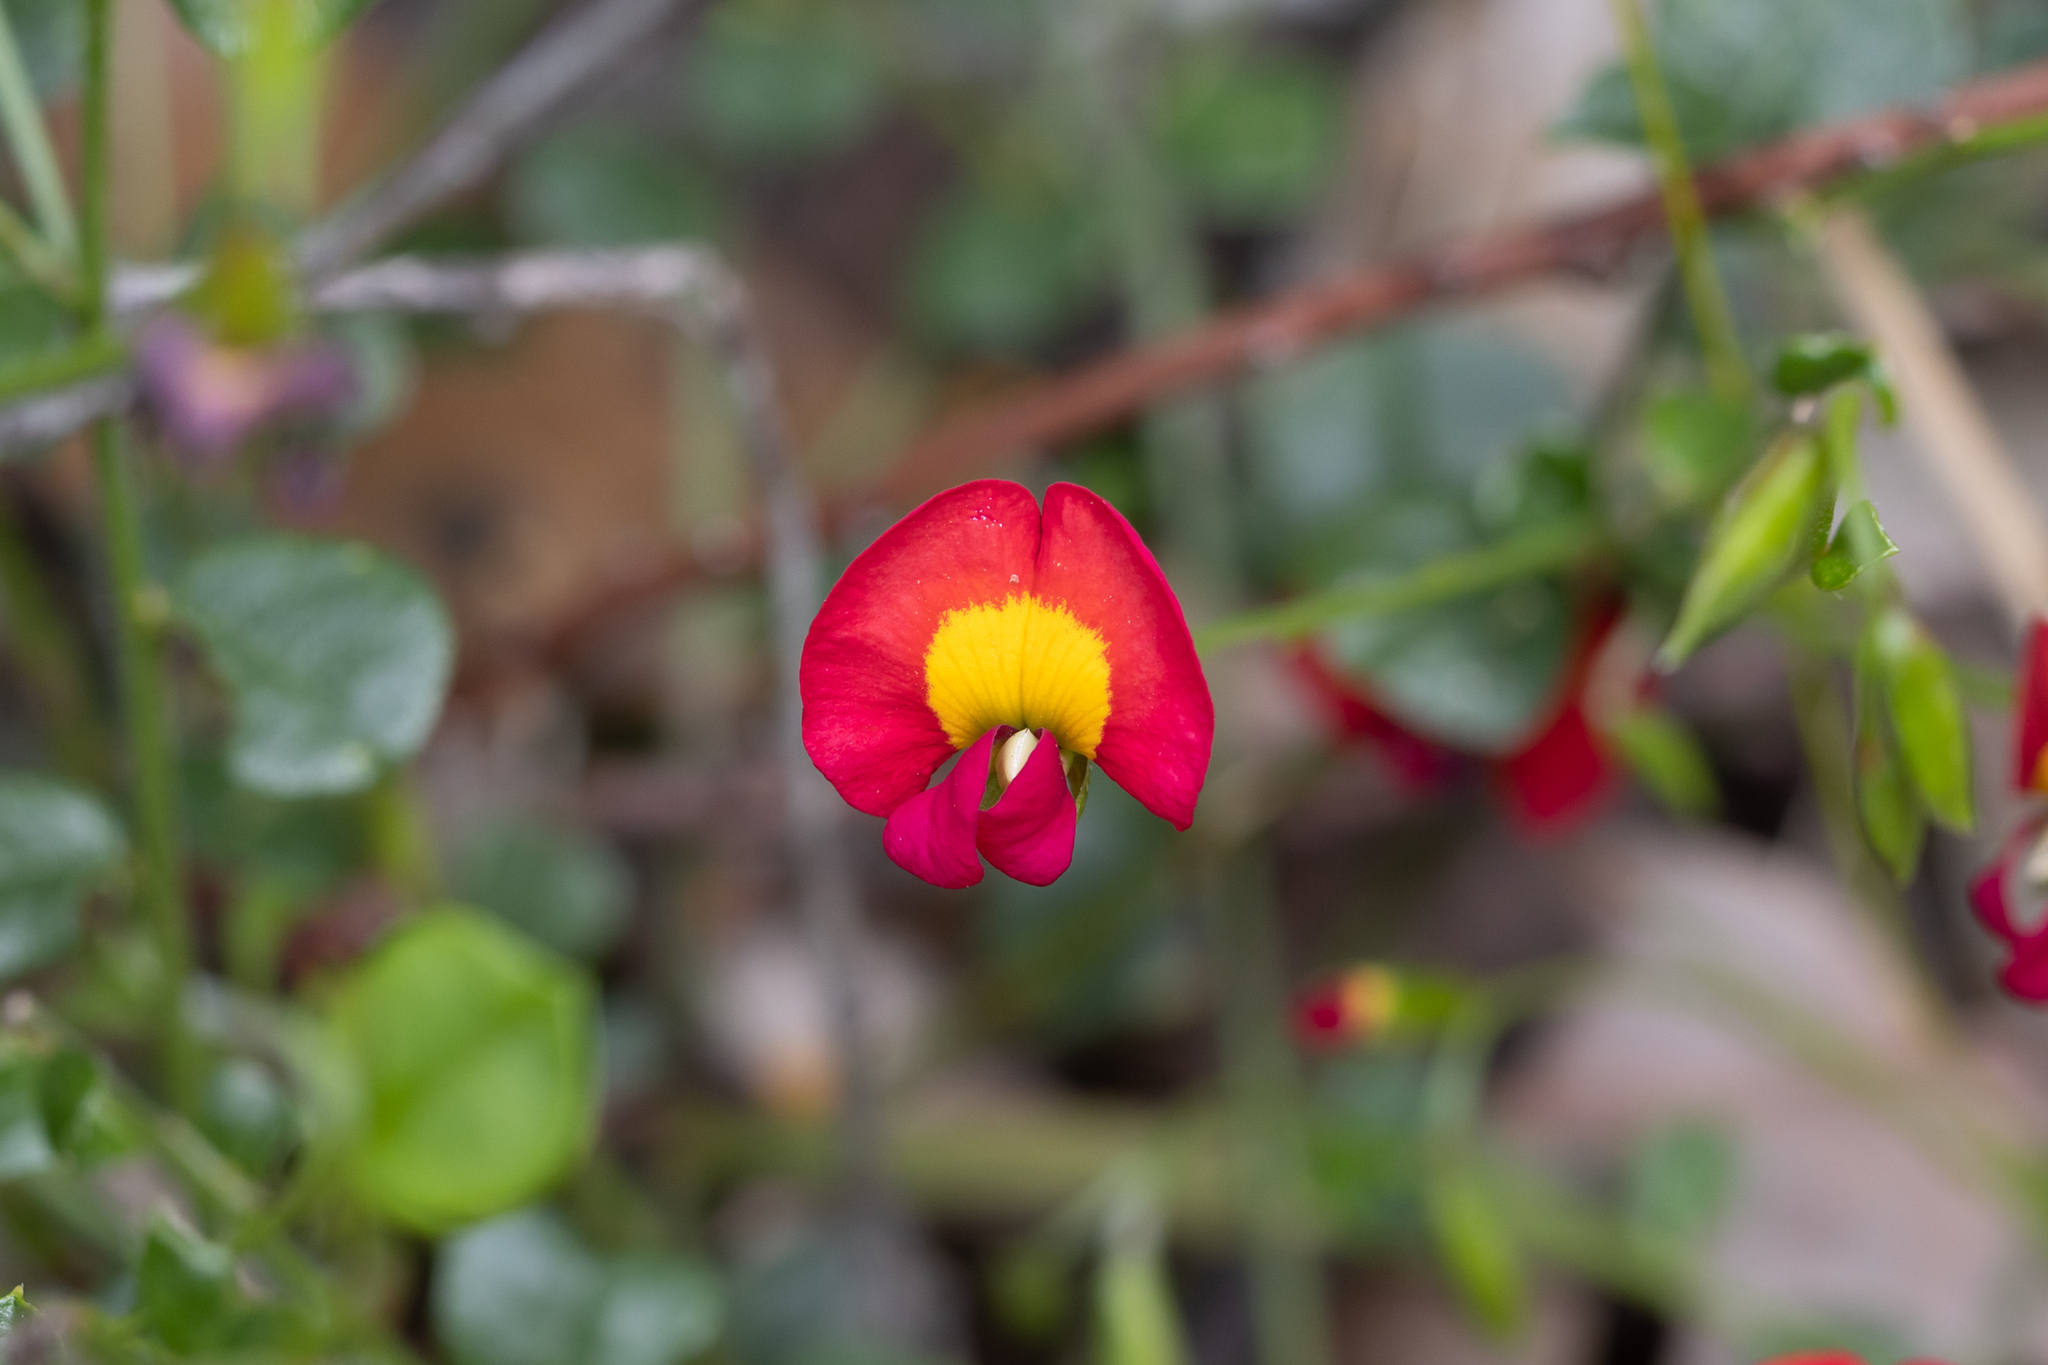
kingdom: Plantae
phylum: Tracheophyta
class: Magnoliopsida
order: Fabales
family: Fabaceae
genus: Chorizema
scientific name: Chorizema rhombeum
